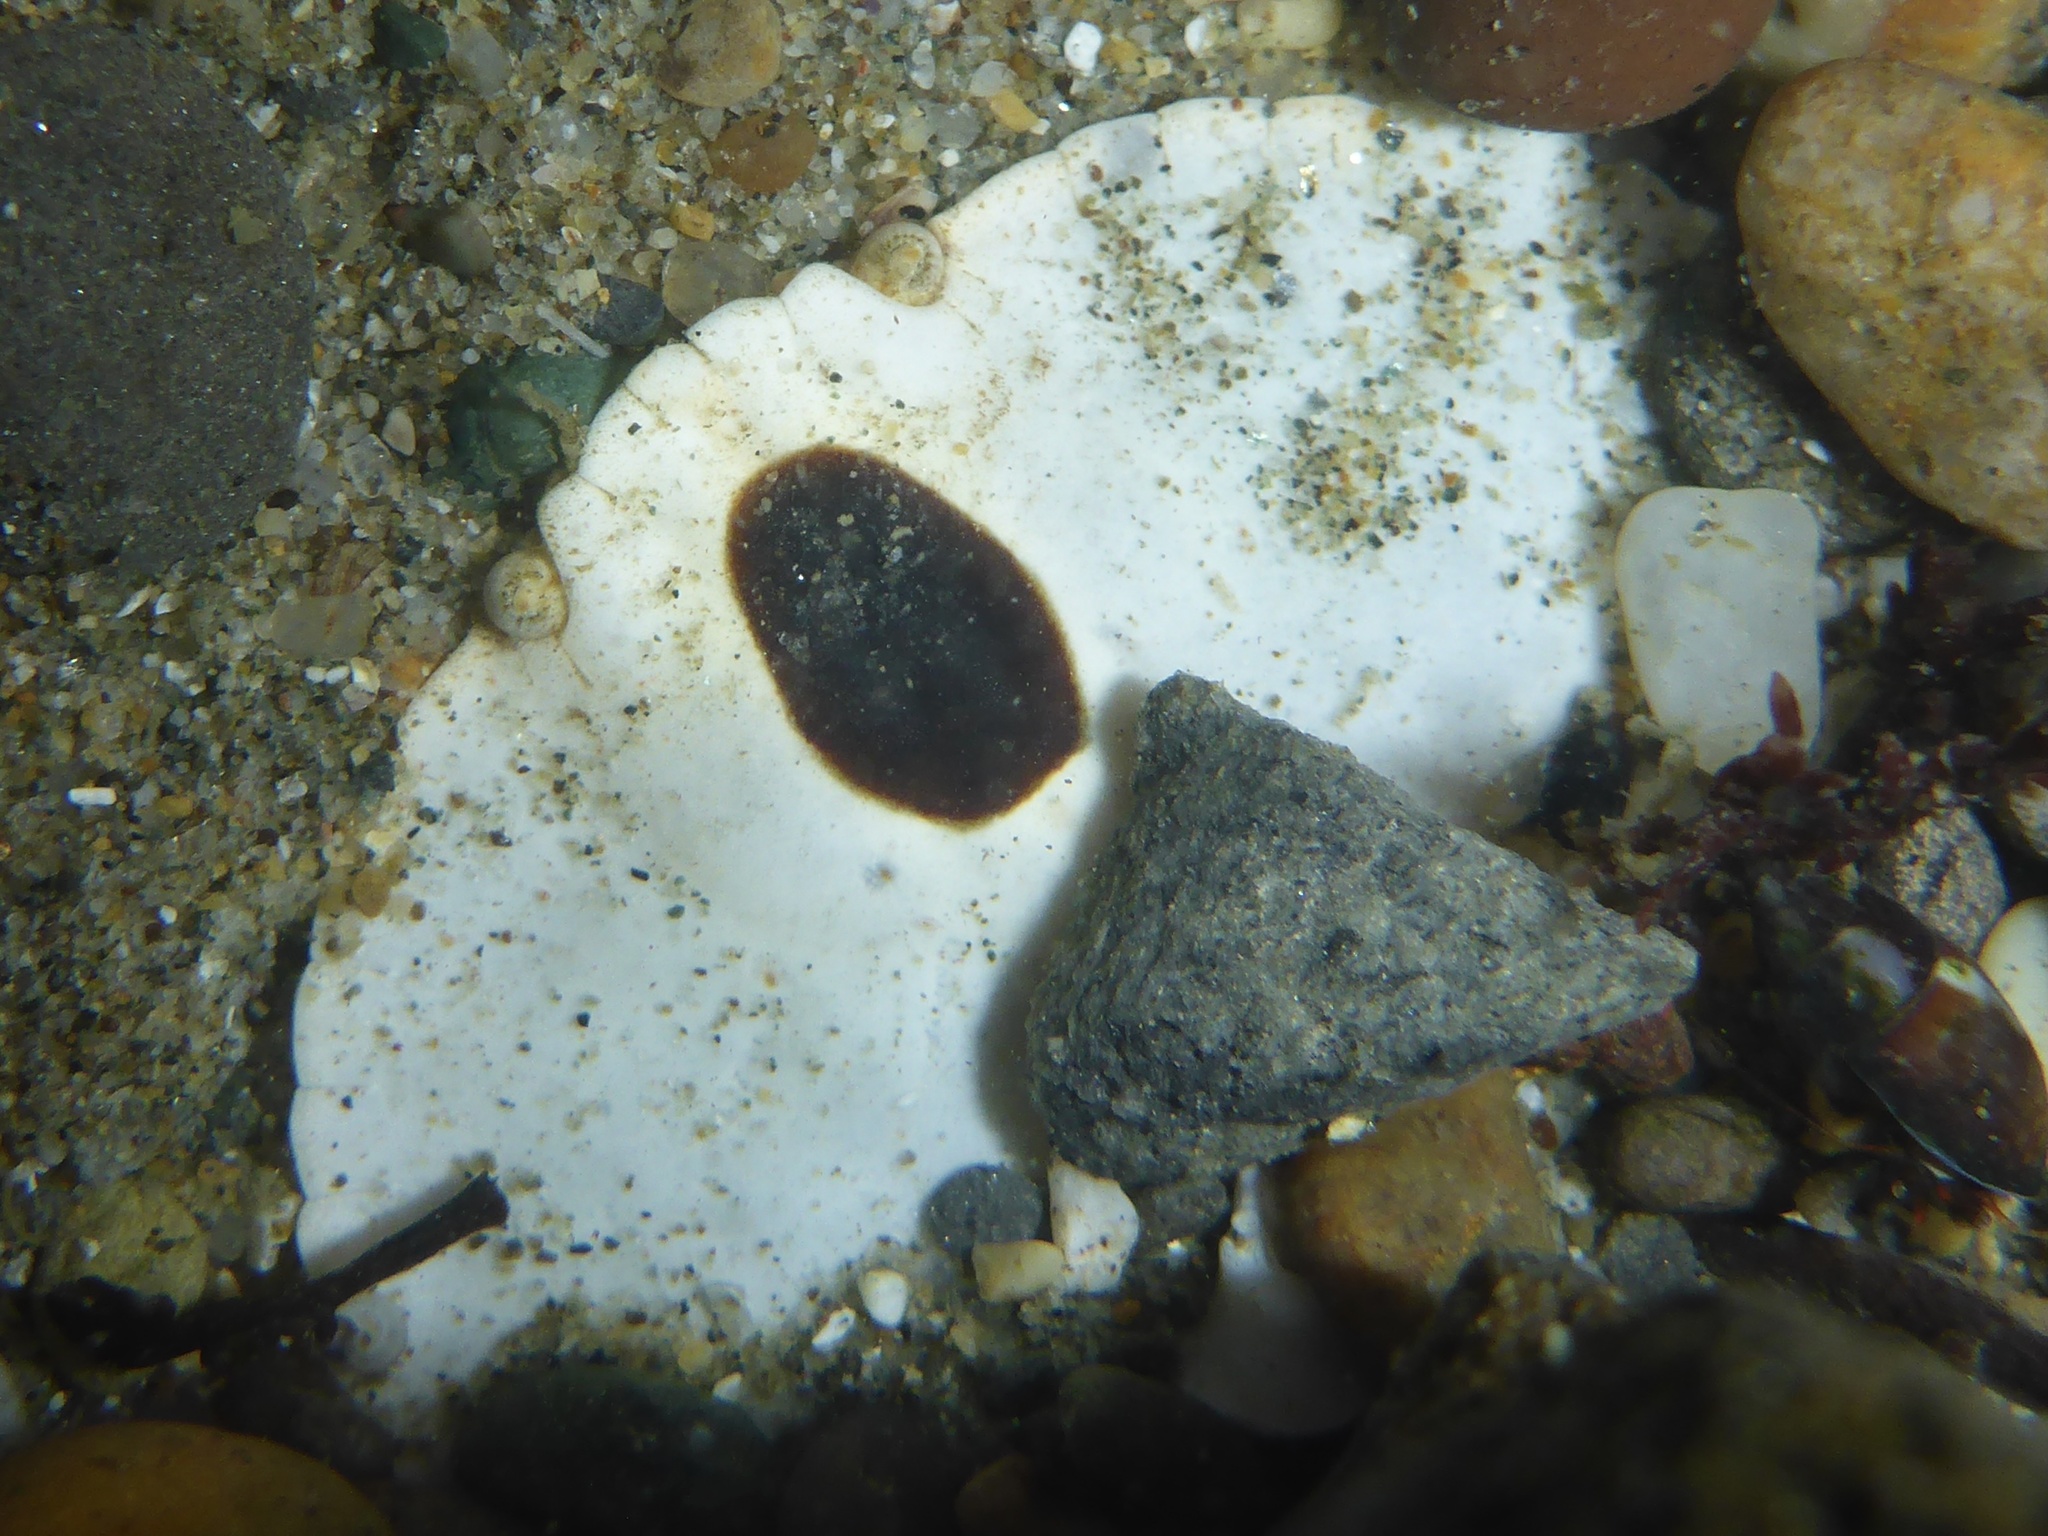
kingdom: Animalia
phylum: Arthropoda
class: Malacostraca
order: Decapoda
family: Cancridae
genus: Cancer
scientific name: Cancer productus
